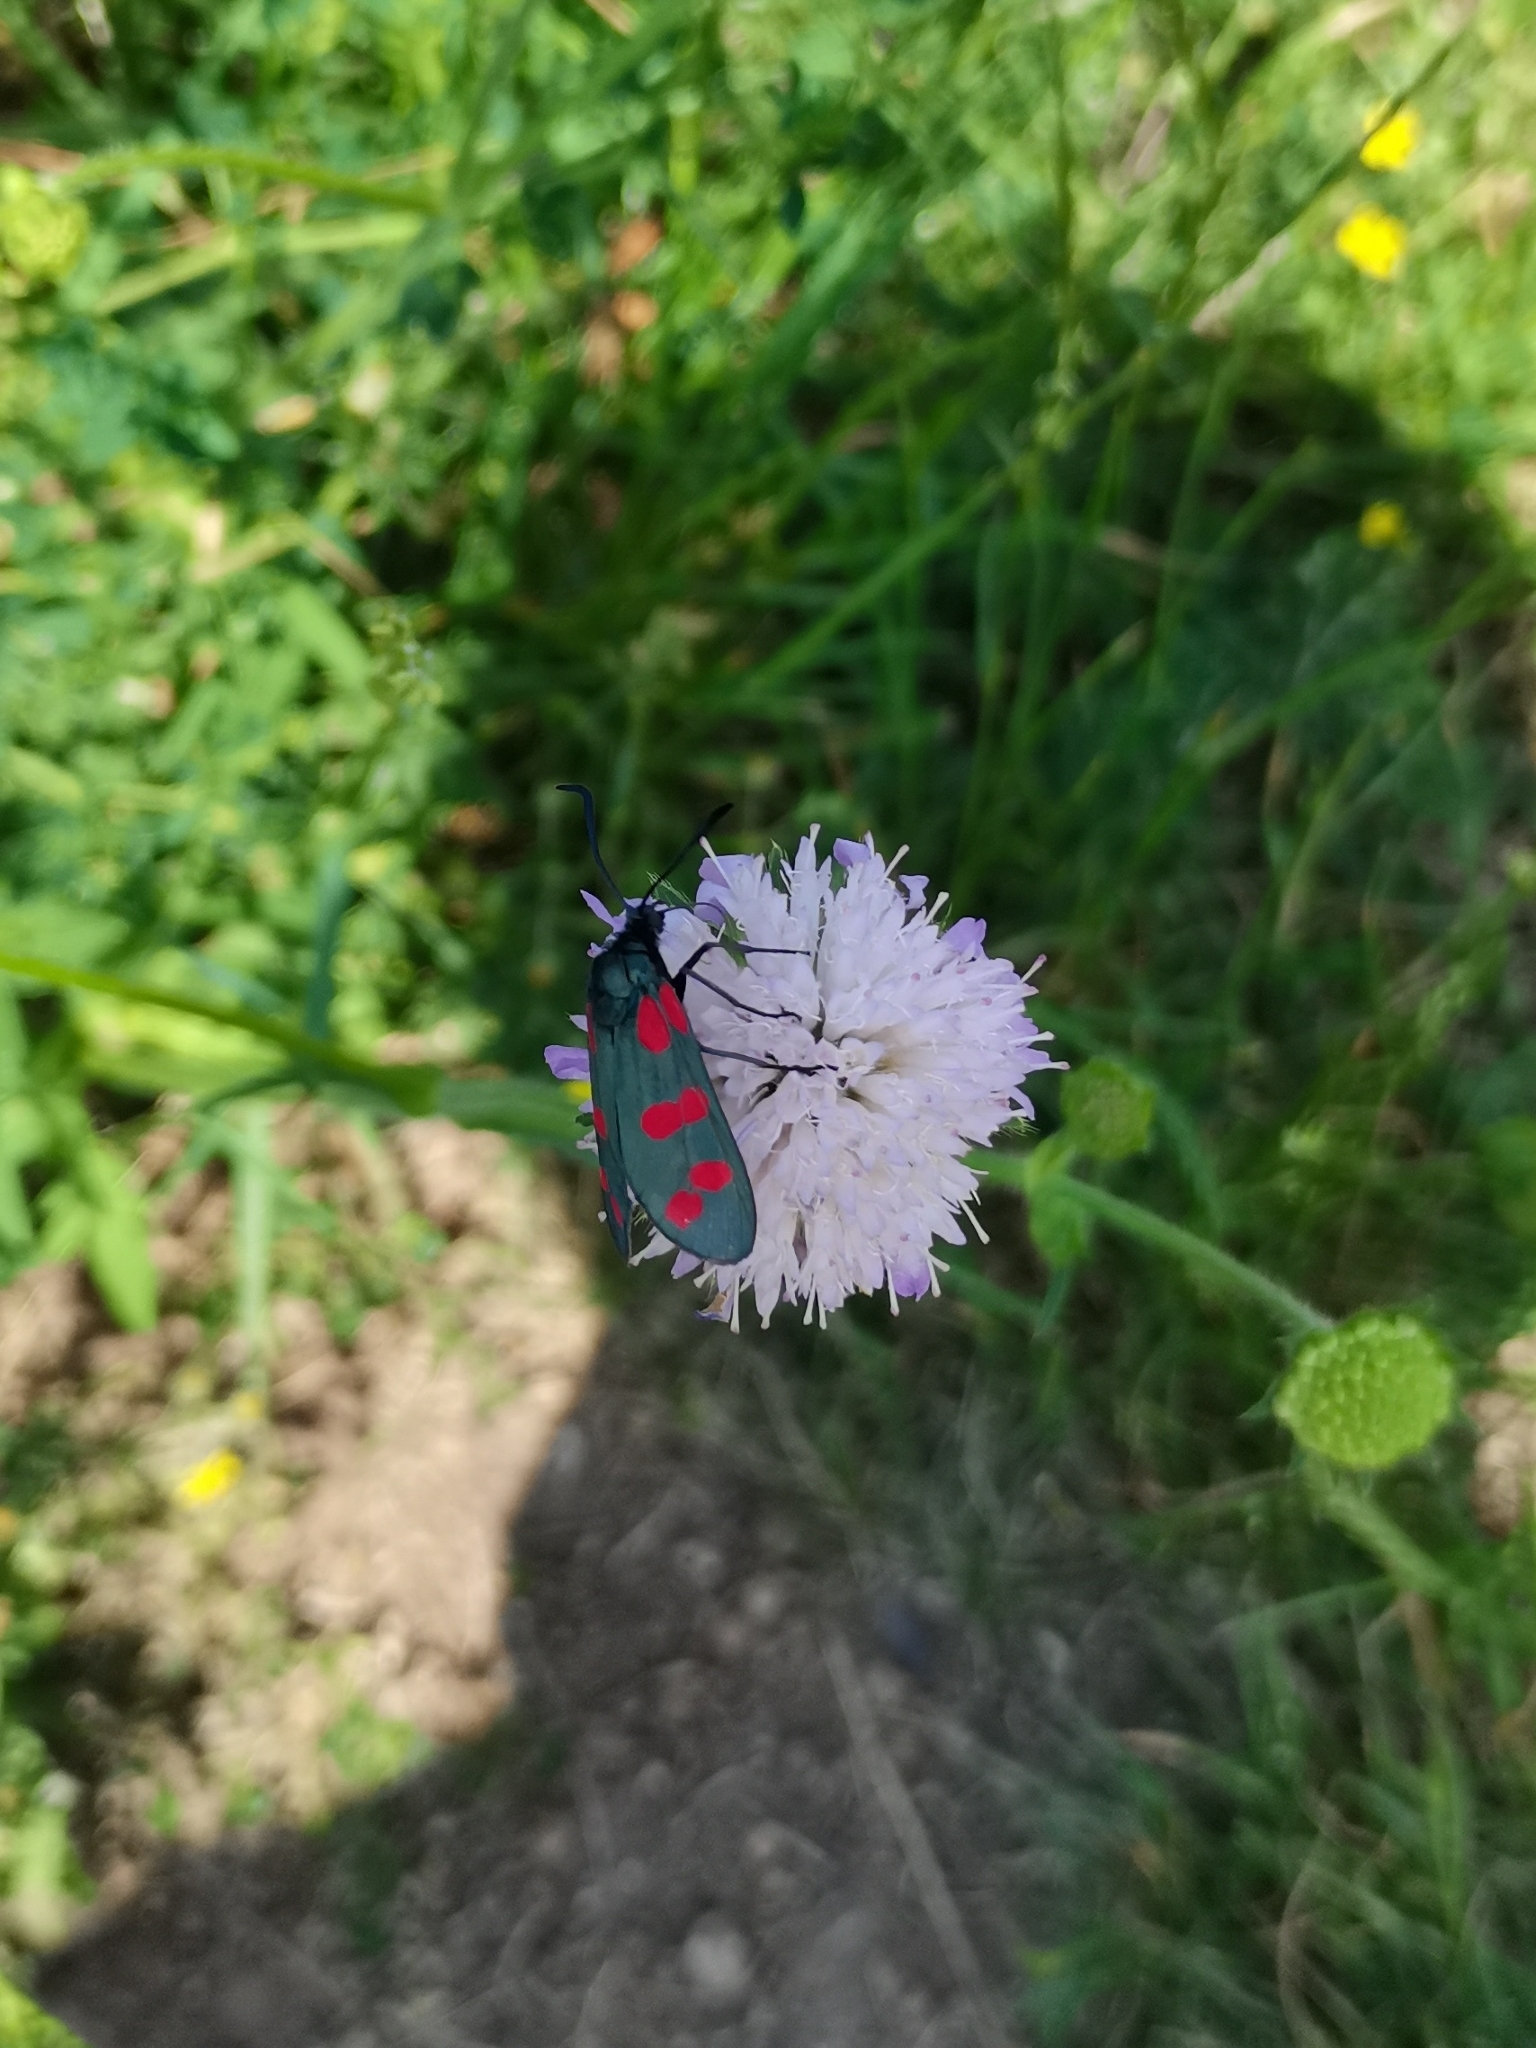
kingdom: Animalia
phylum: Arthropoda
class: Insecta
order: Lepidoptera
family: Zygaenidae
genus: Zygaena
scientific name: Zygaena filipendulae
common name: Six-spot burnet
